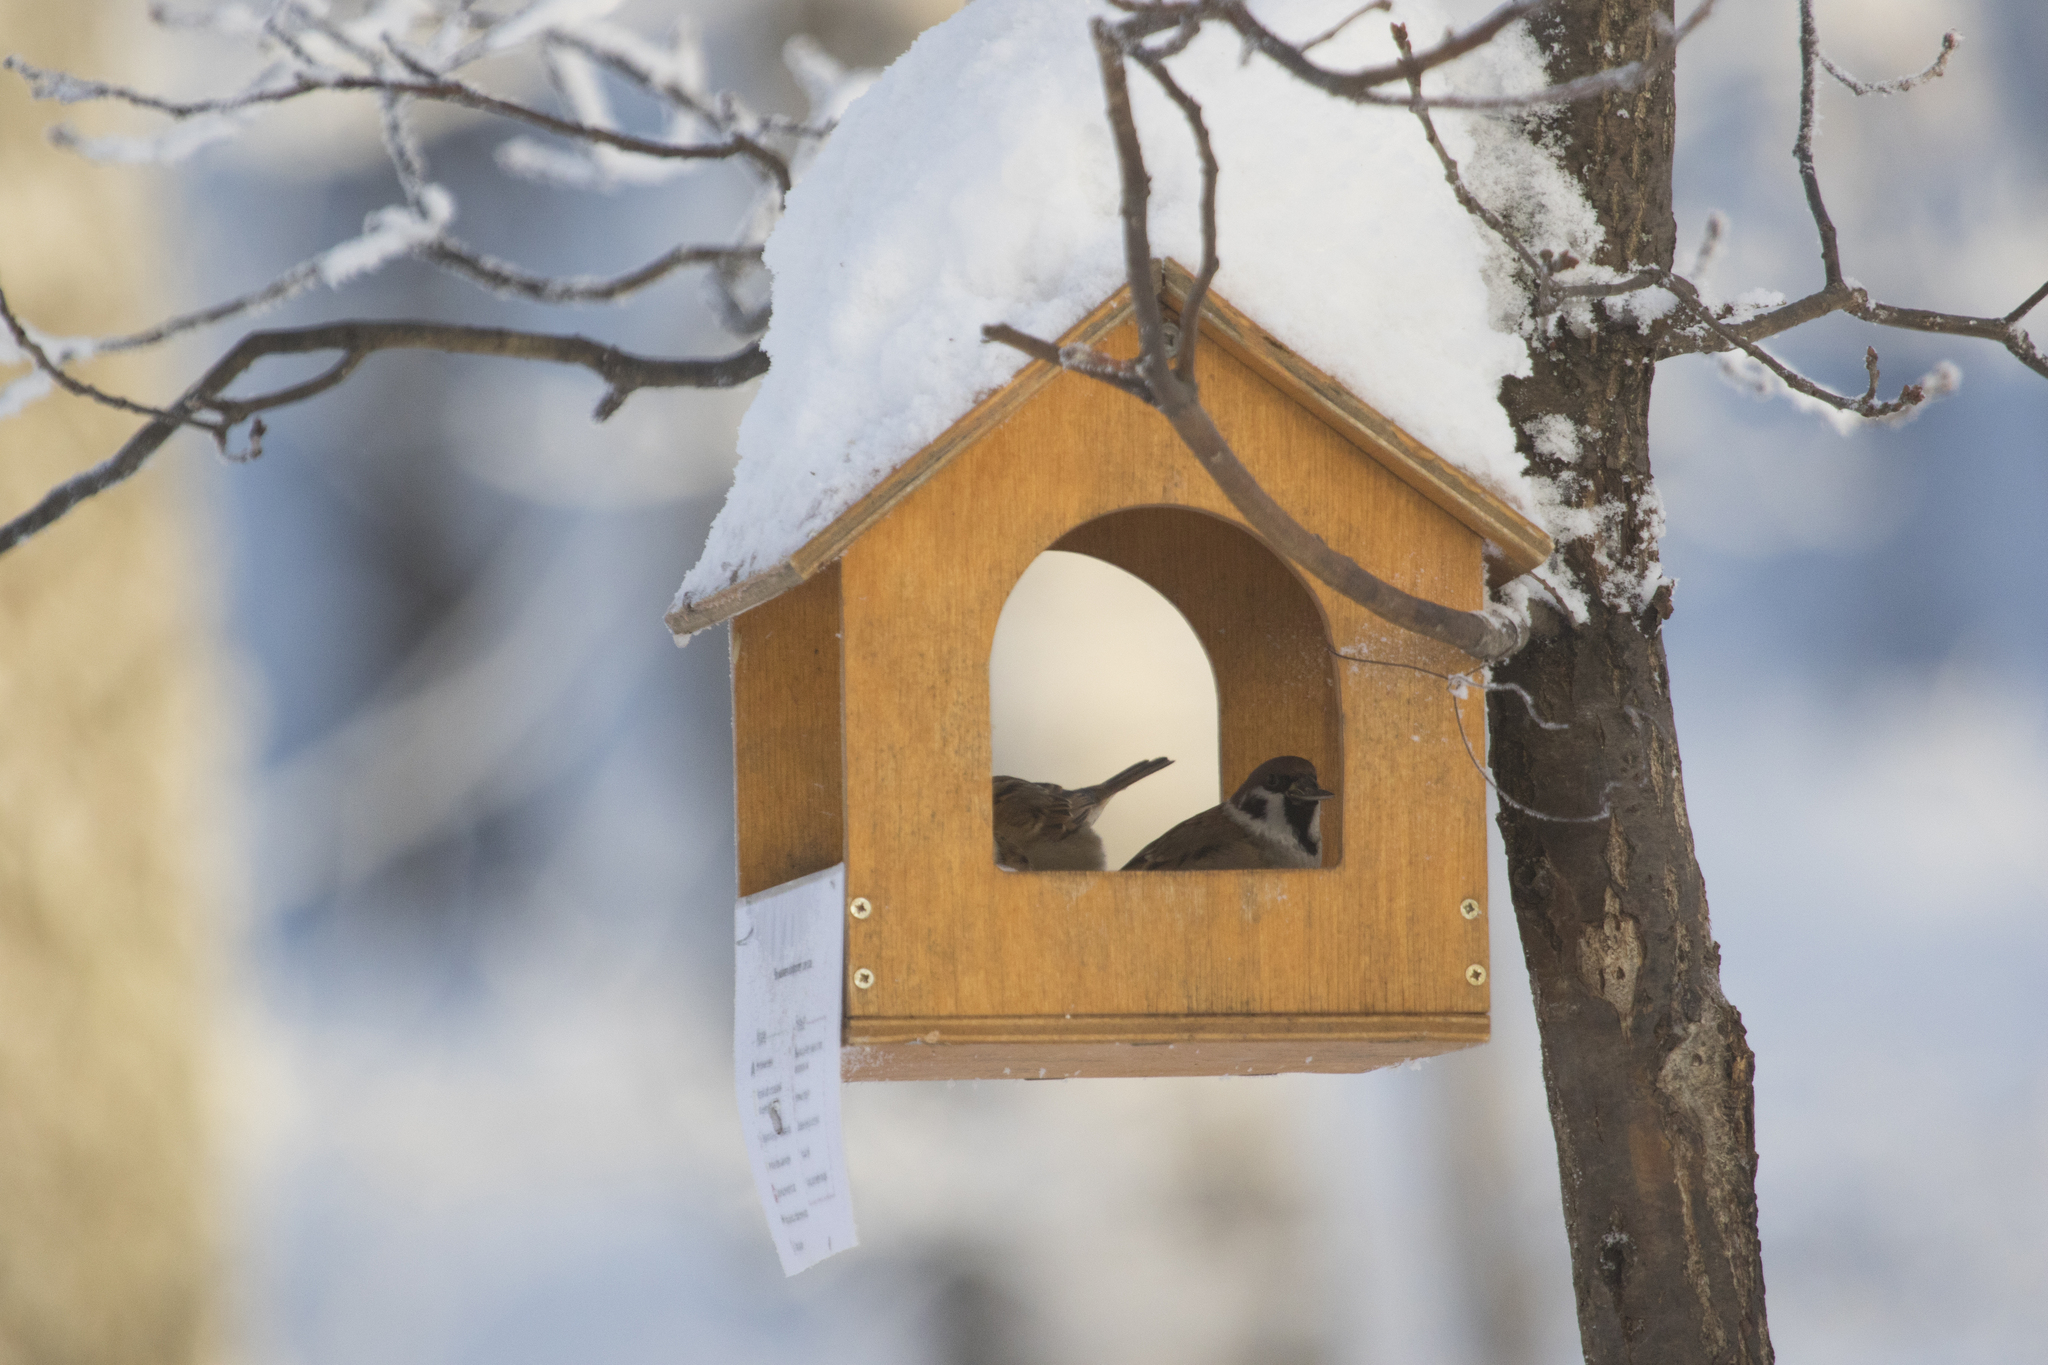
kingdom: Animalia
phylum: Chordata
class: Aves
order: Passeriformes
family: Passeridae
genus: Passer
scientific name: Passer montanus
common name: Eurasian tree sparrow
